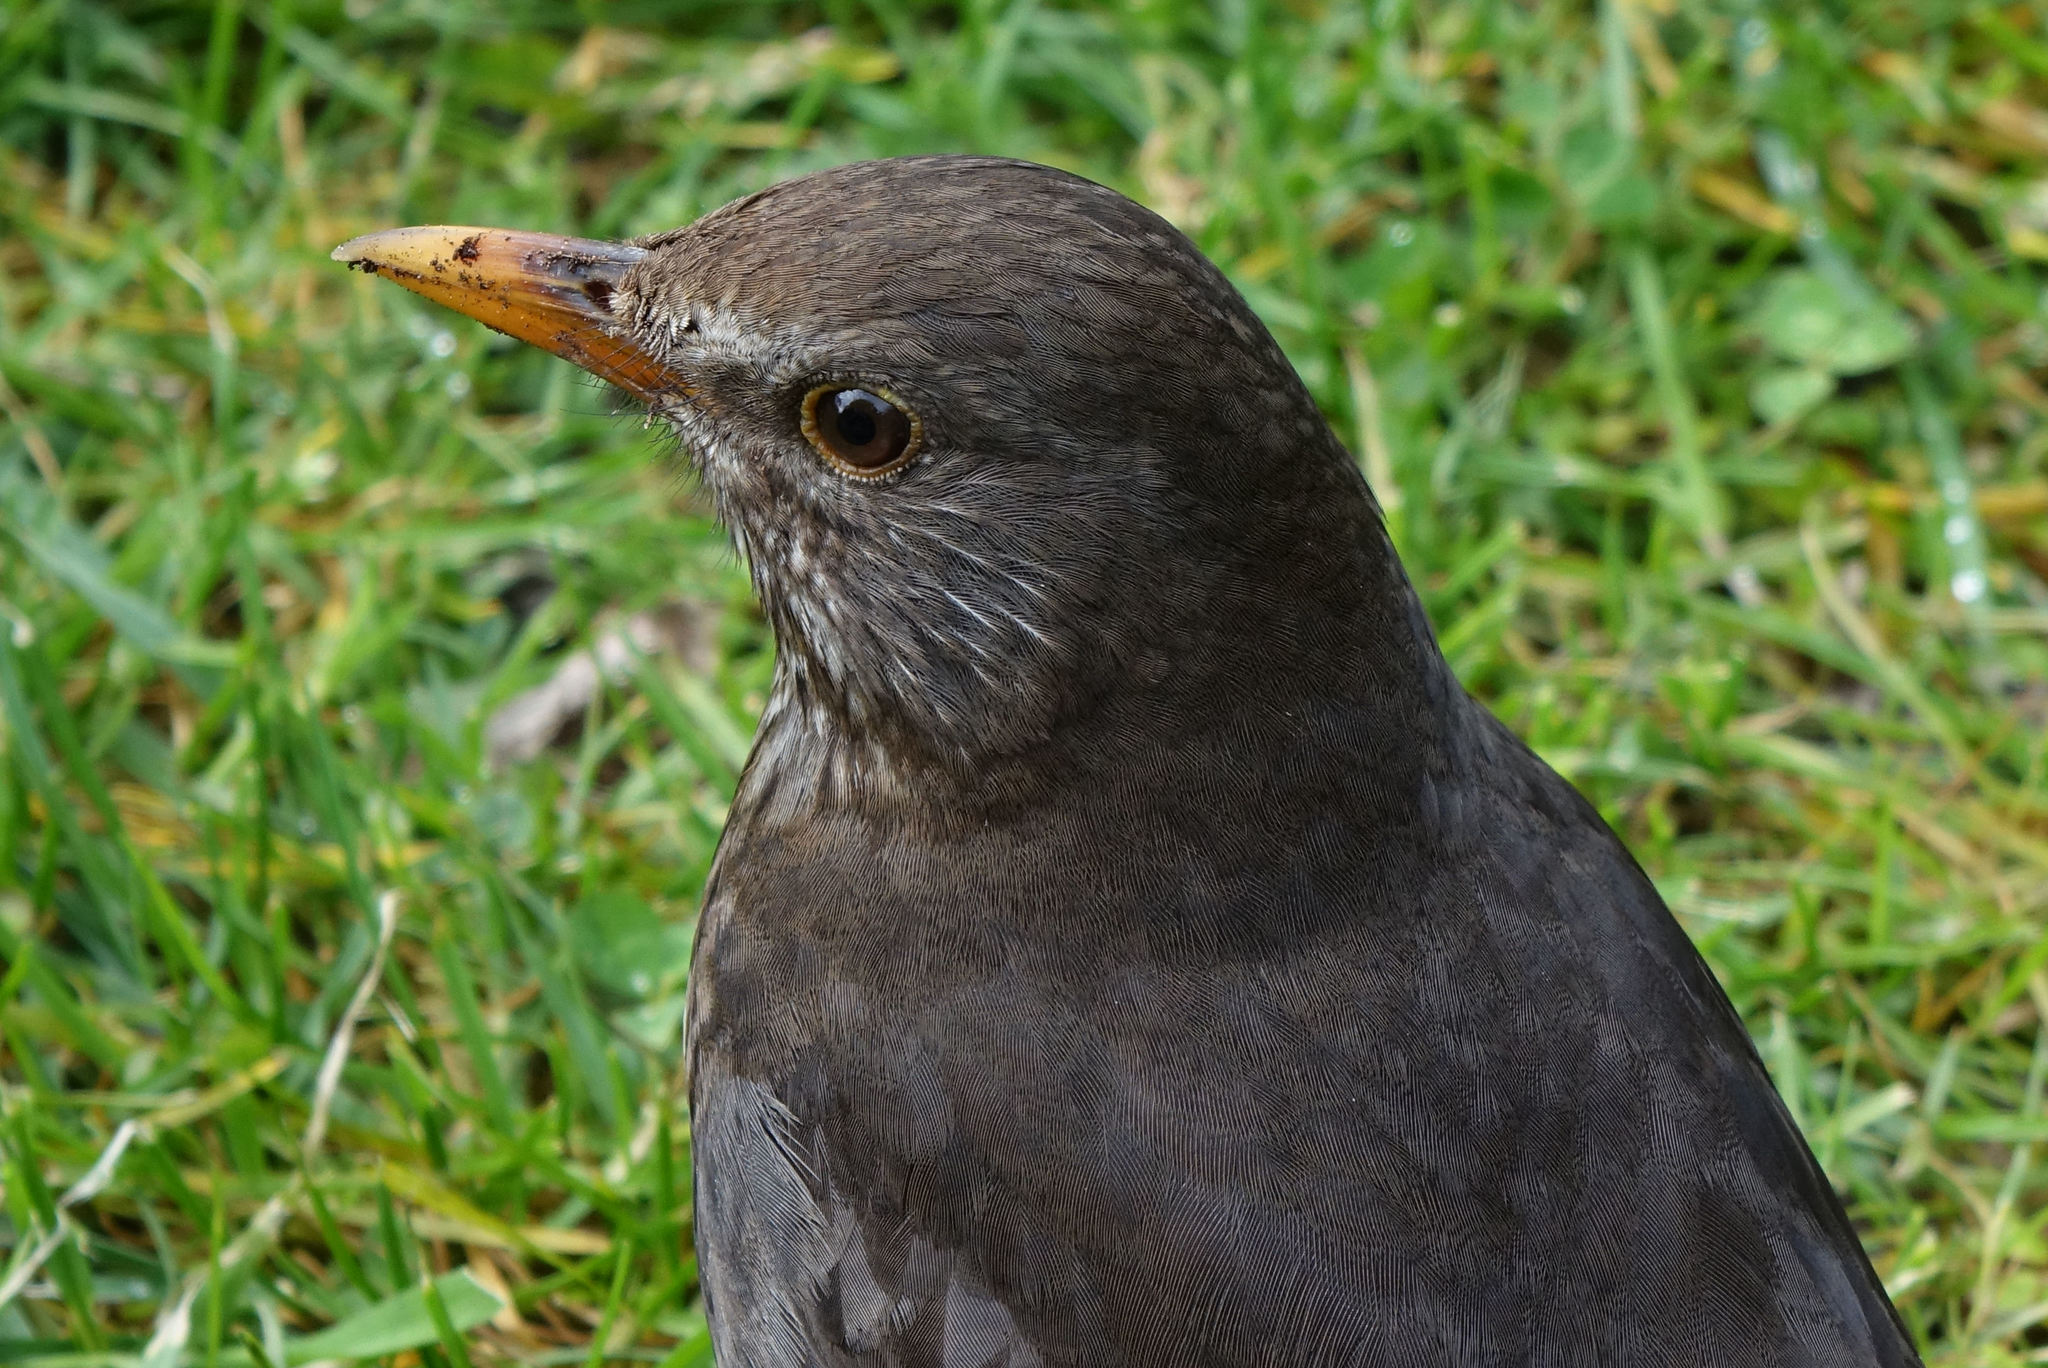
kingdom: Animalia
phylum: Chordata
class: Aves
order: Passeriformes
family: Turdidae
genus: Turdus
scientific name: Turdus merula
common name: Common blackbird
